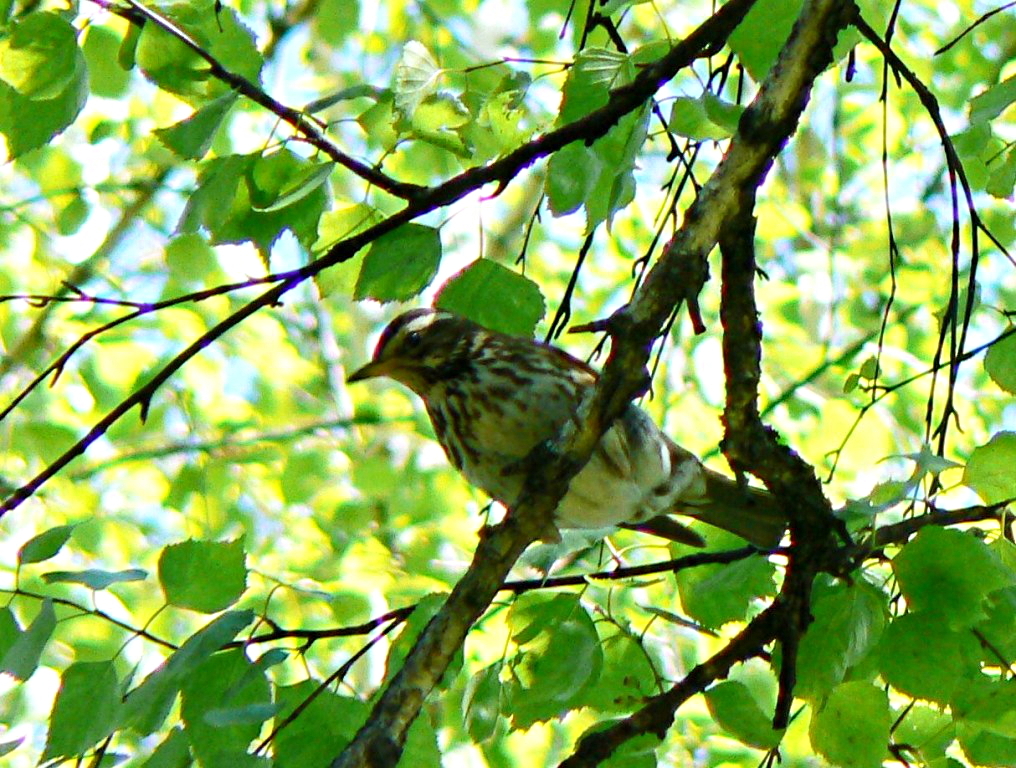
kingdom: Animalia
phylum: Chordata
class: Aves
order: Passeriformes
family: Turdidae
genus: Turdus
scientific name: Turdus iliacus
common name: Redwing
